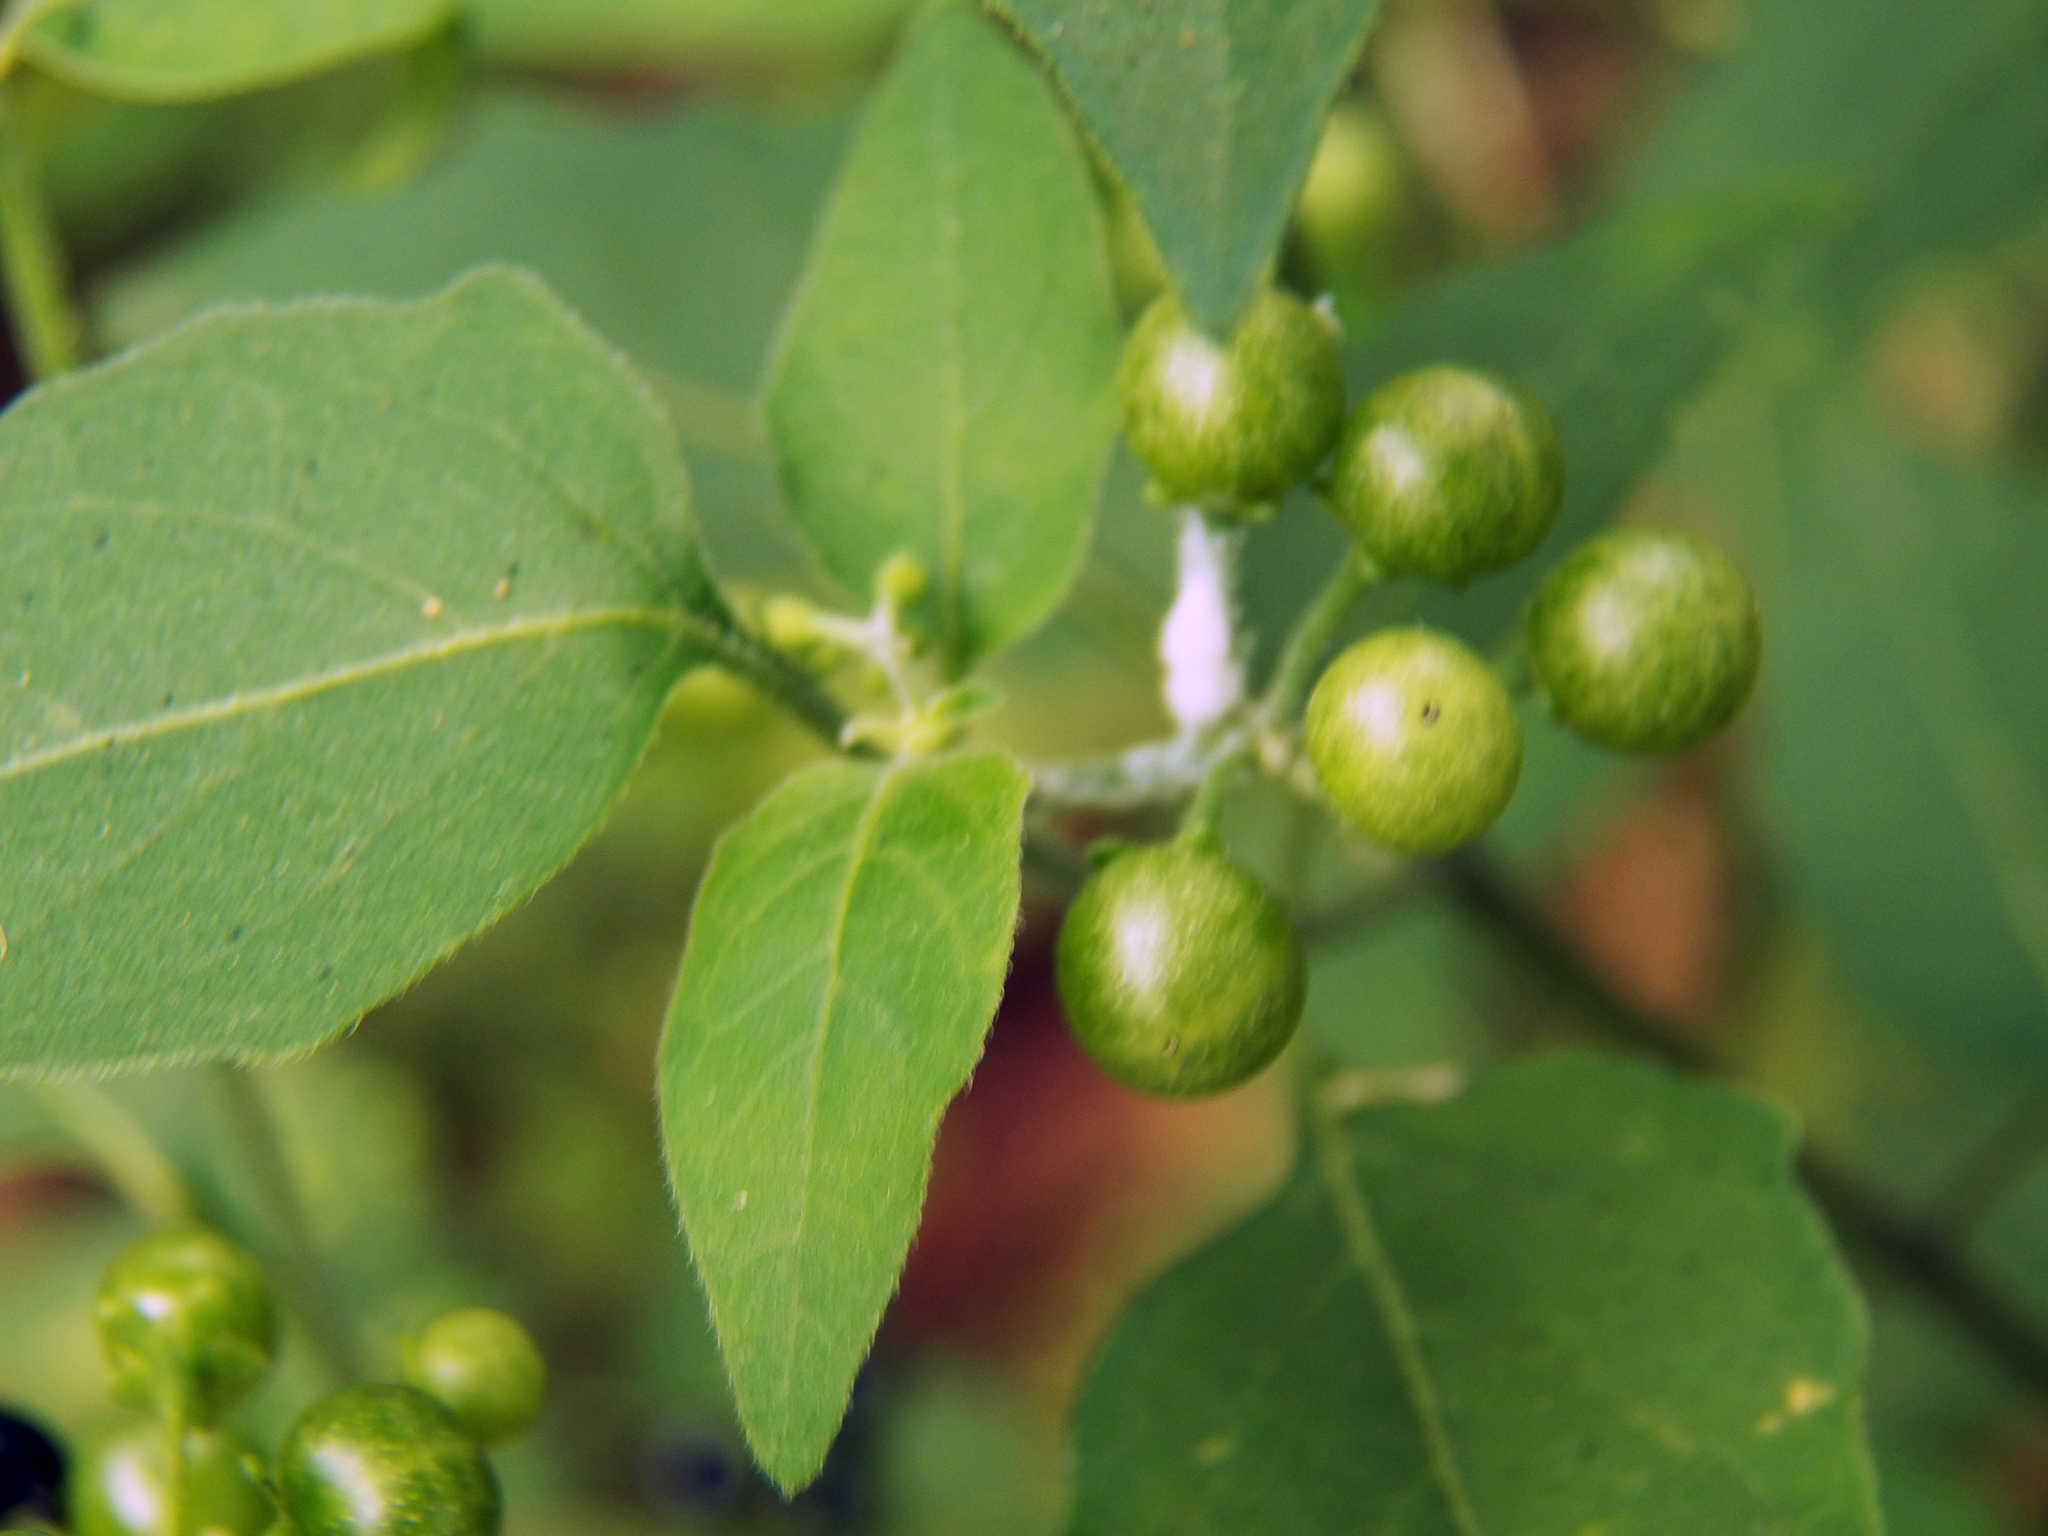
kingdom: Plantae
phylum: Tracheophyta
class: Magnoliopsida
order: Solanales
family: Solanaceae
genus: Solanum
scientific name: Solanum americanum
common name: American black nightshade
